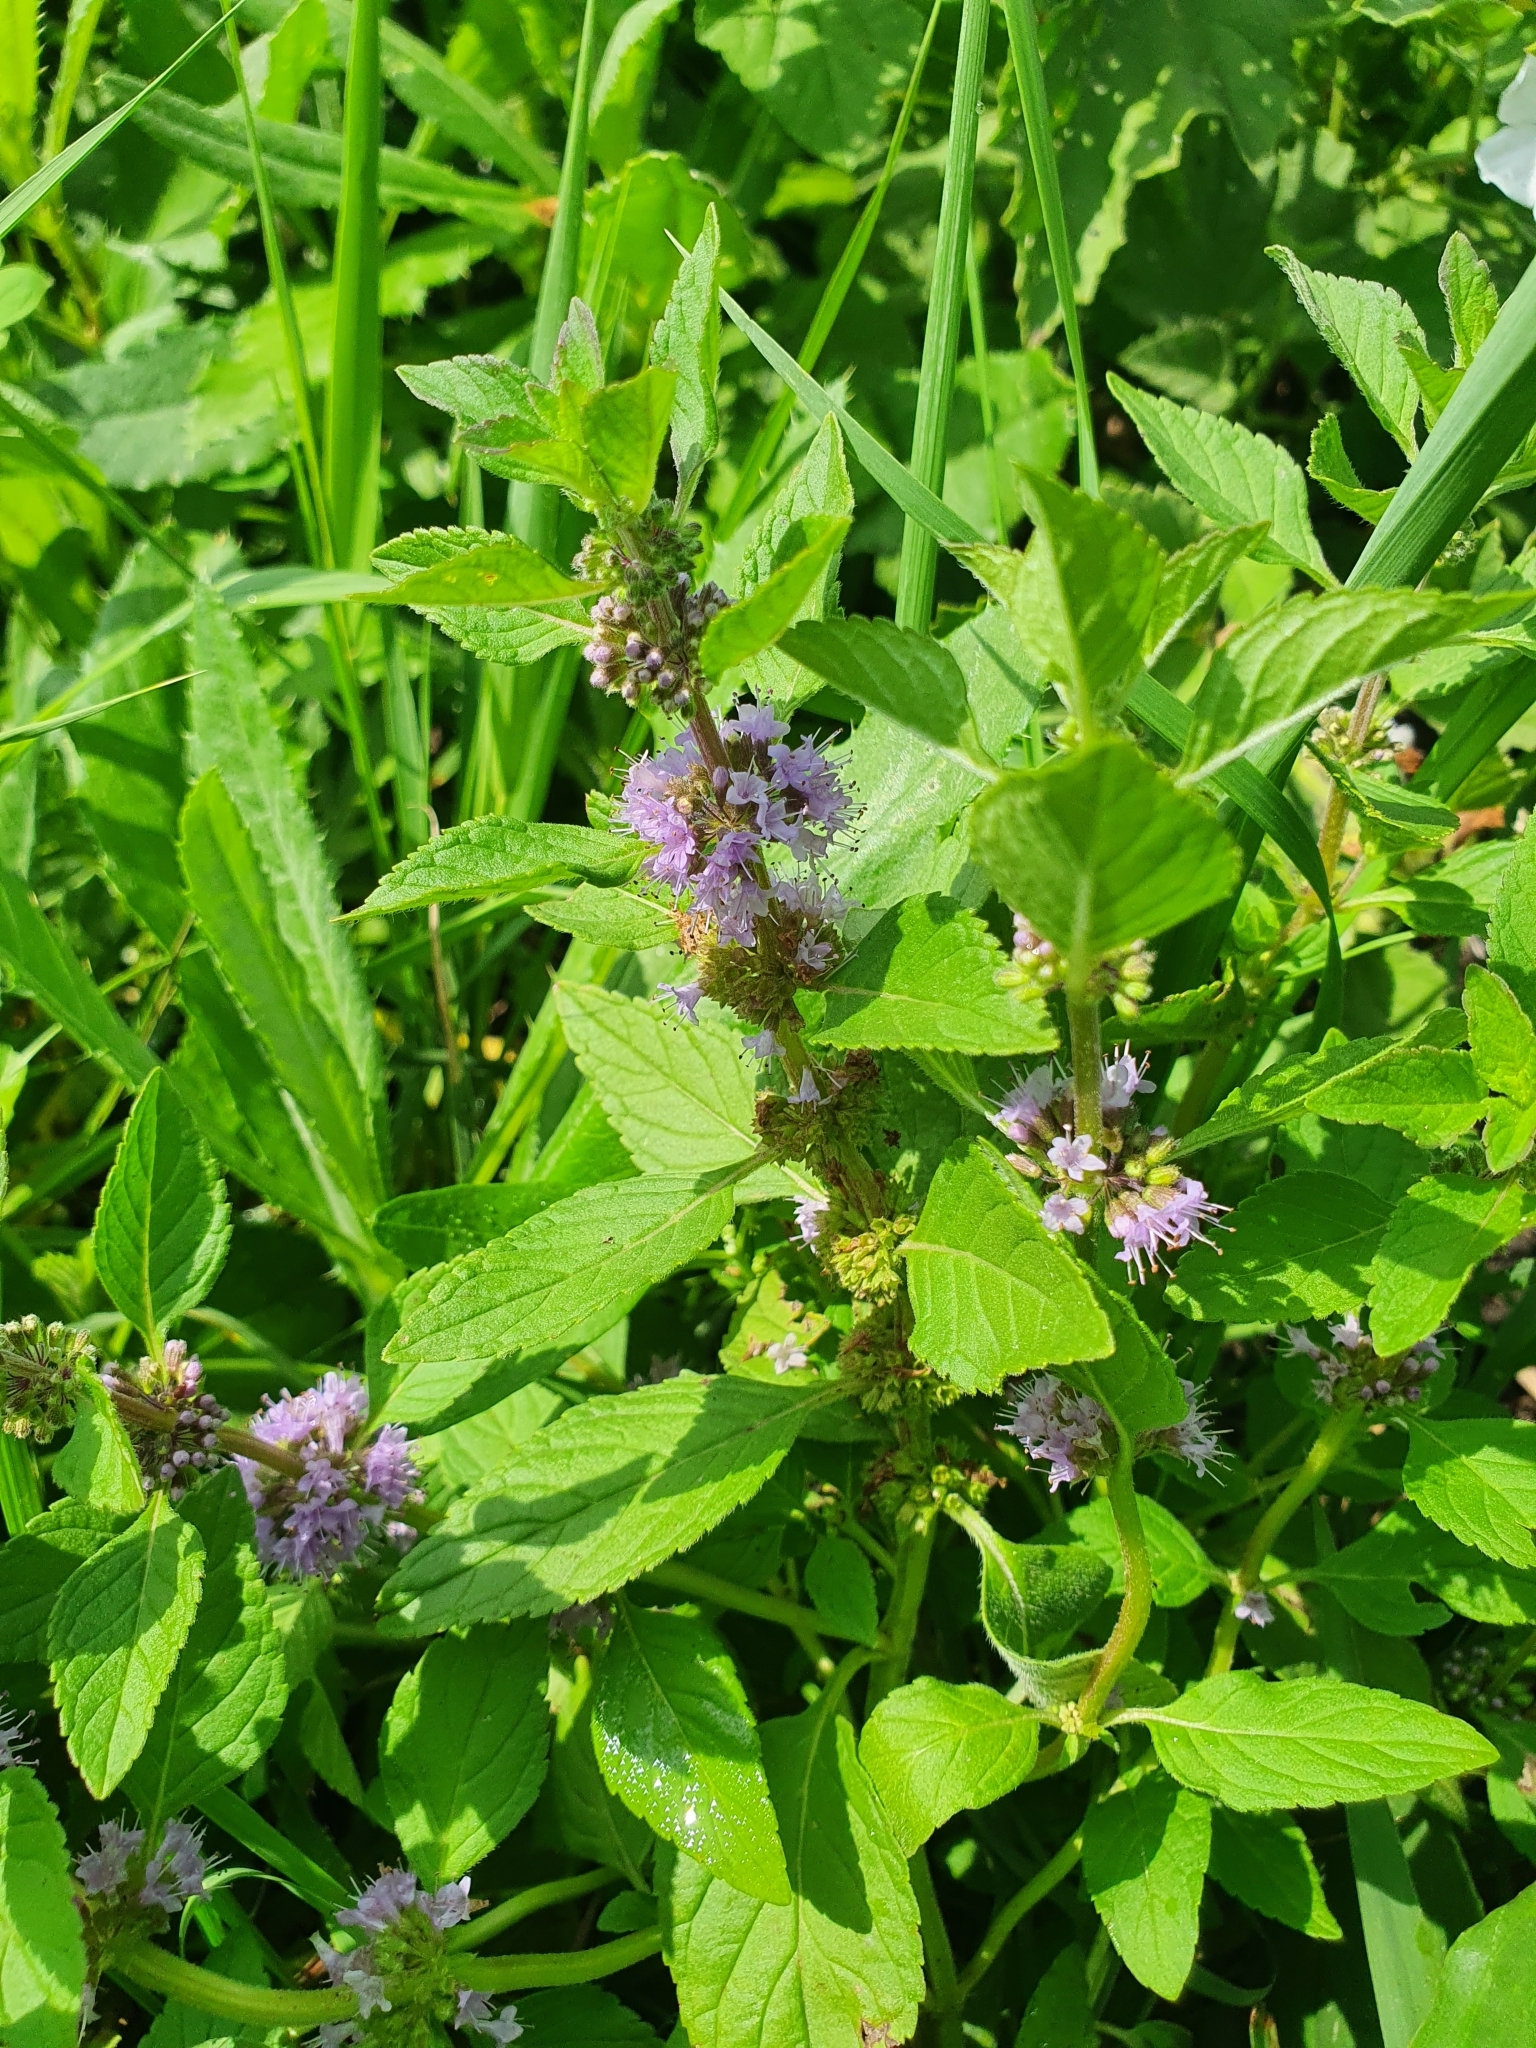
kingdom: Plantae
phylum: Tracheophyta
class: Magnoliopsida
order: Lamiales
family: Lamiaceae
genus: Mentha
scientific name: Mentha arvensis
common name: Corn mint
